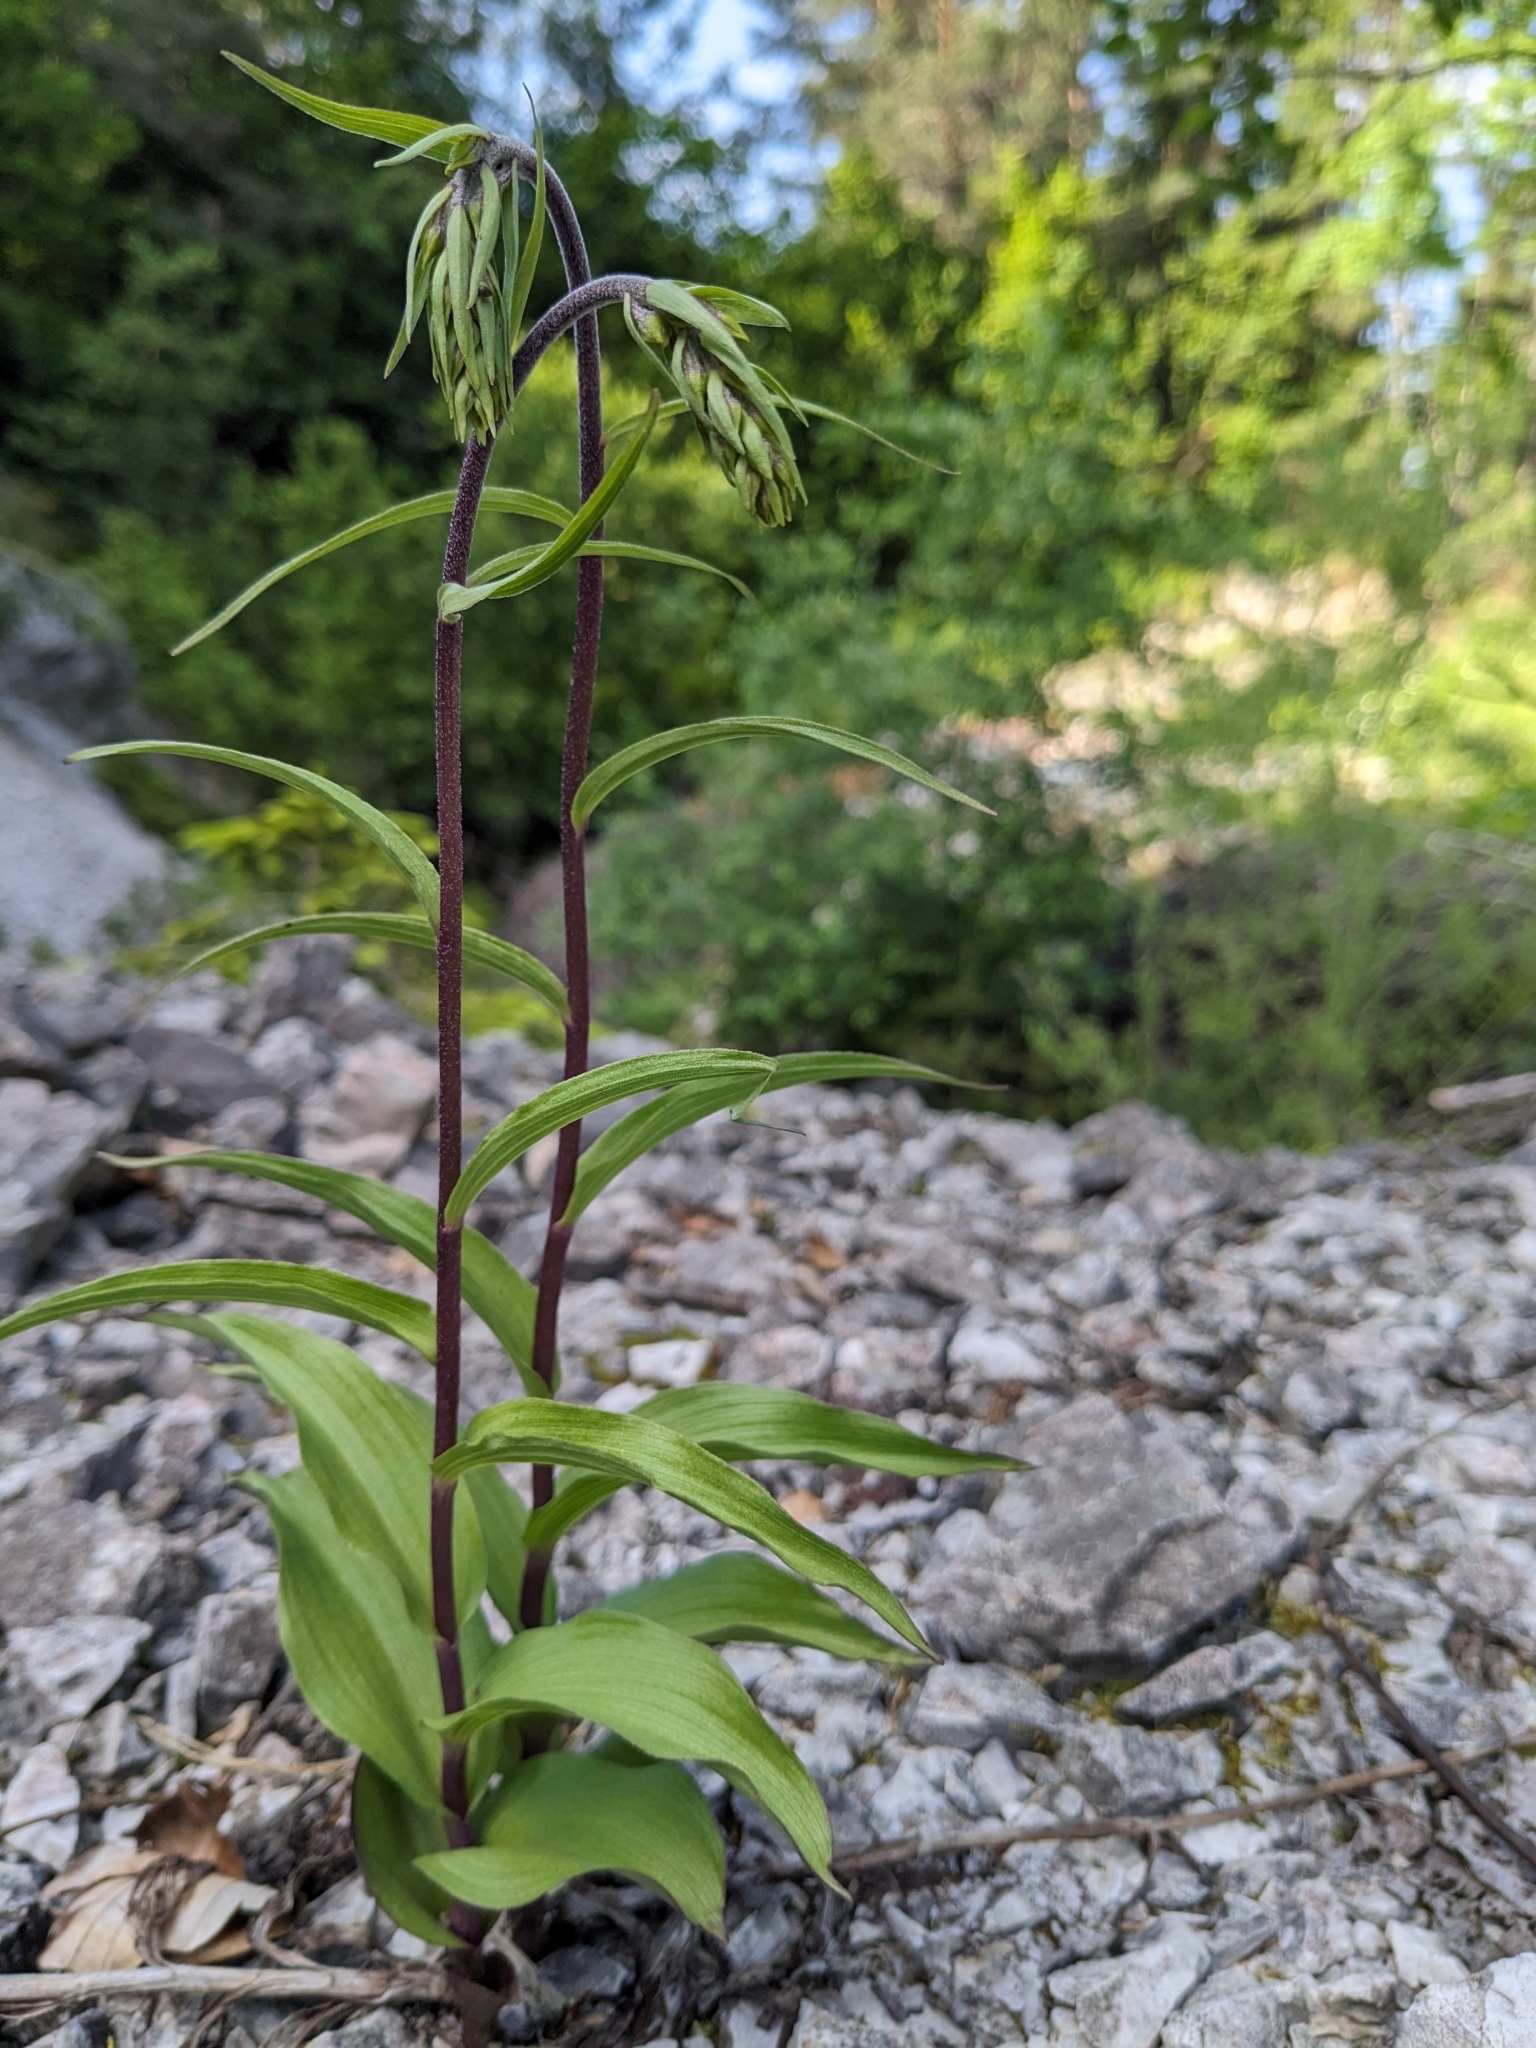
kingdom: Plantae
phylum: Tracheophyta
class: Liliopsida
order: Asparagales
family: Orchidaceae
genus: Epipactis
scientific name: Epipactis atrorubens
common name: Dark-red helleborine
